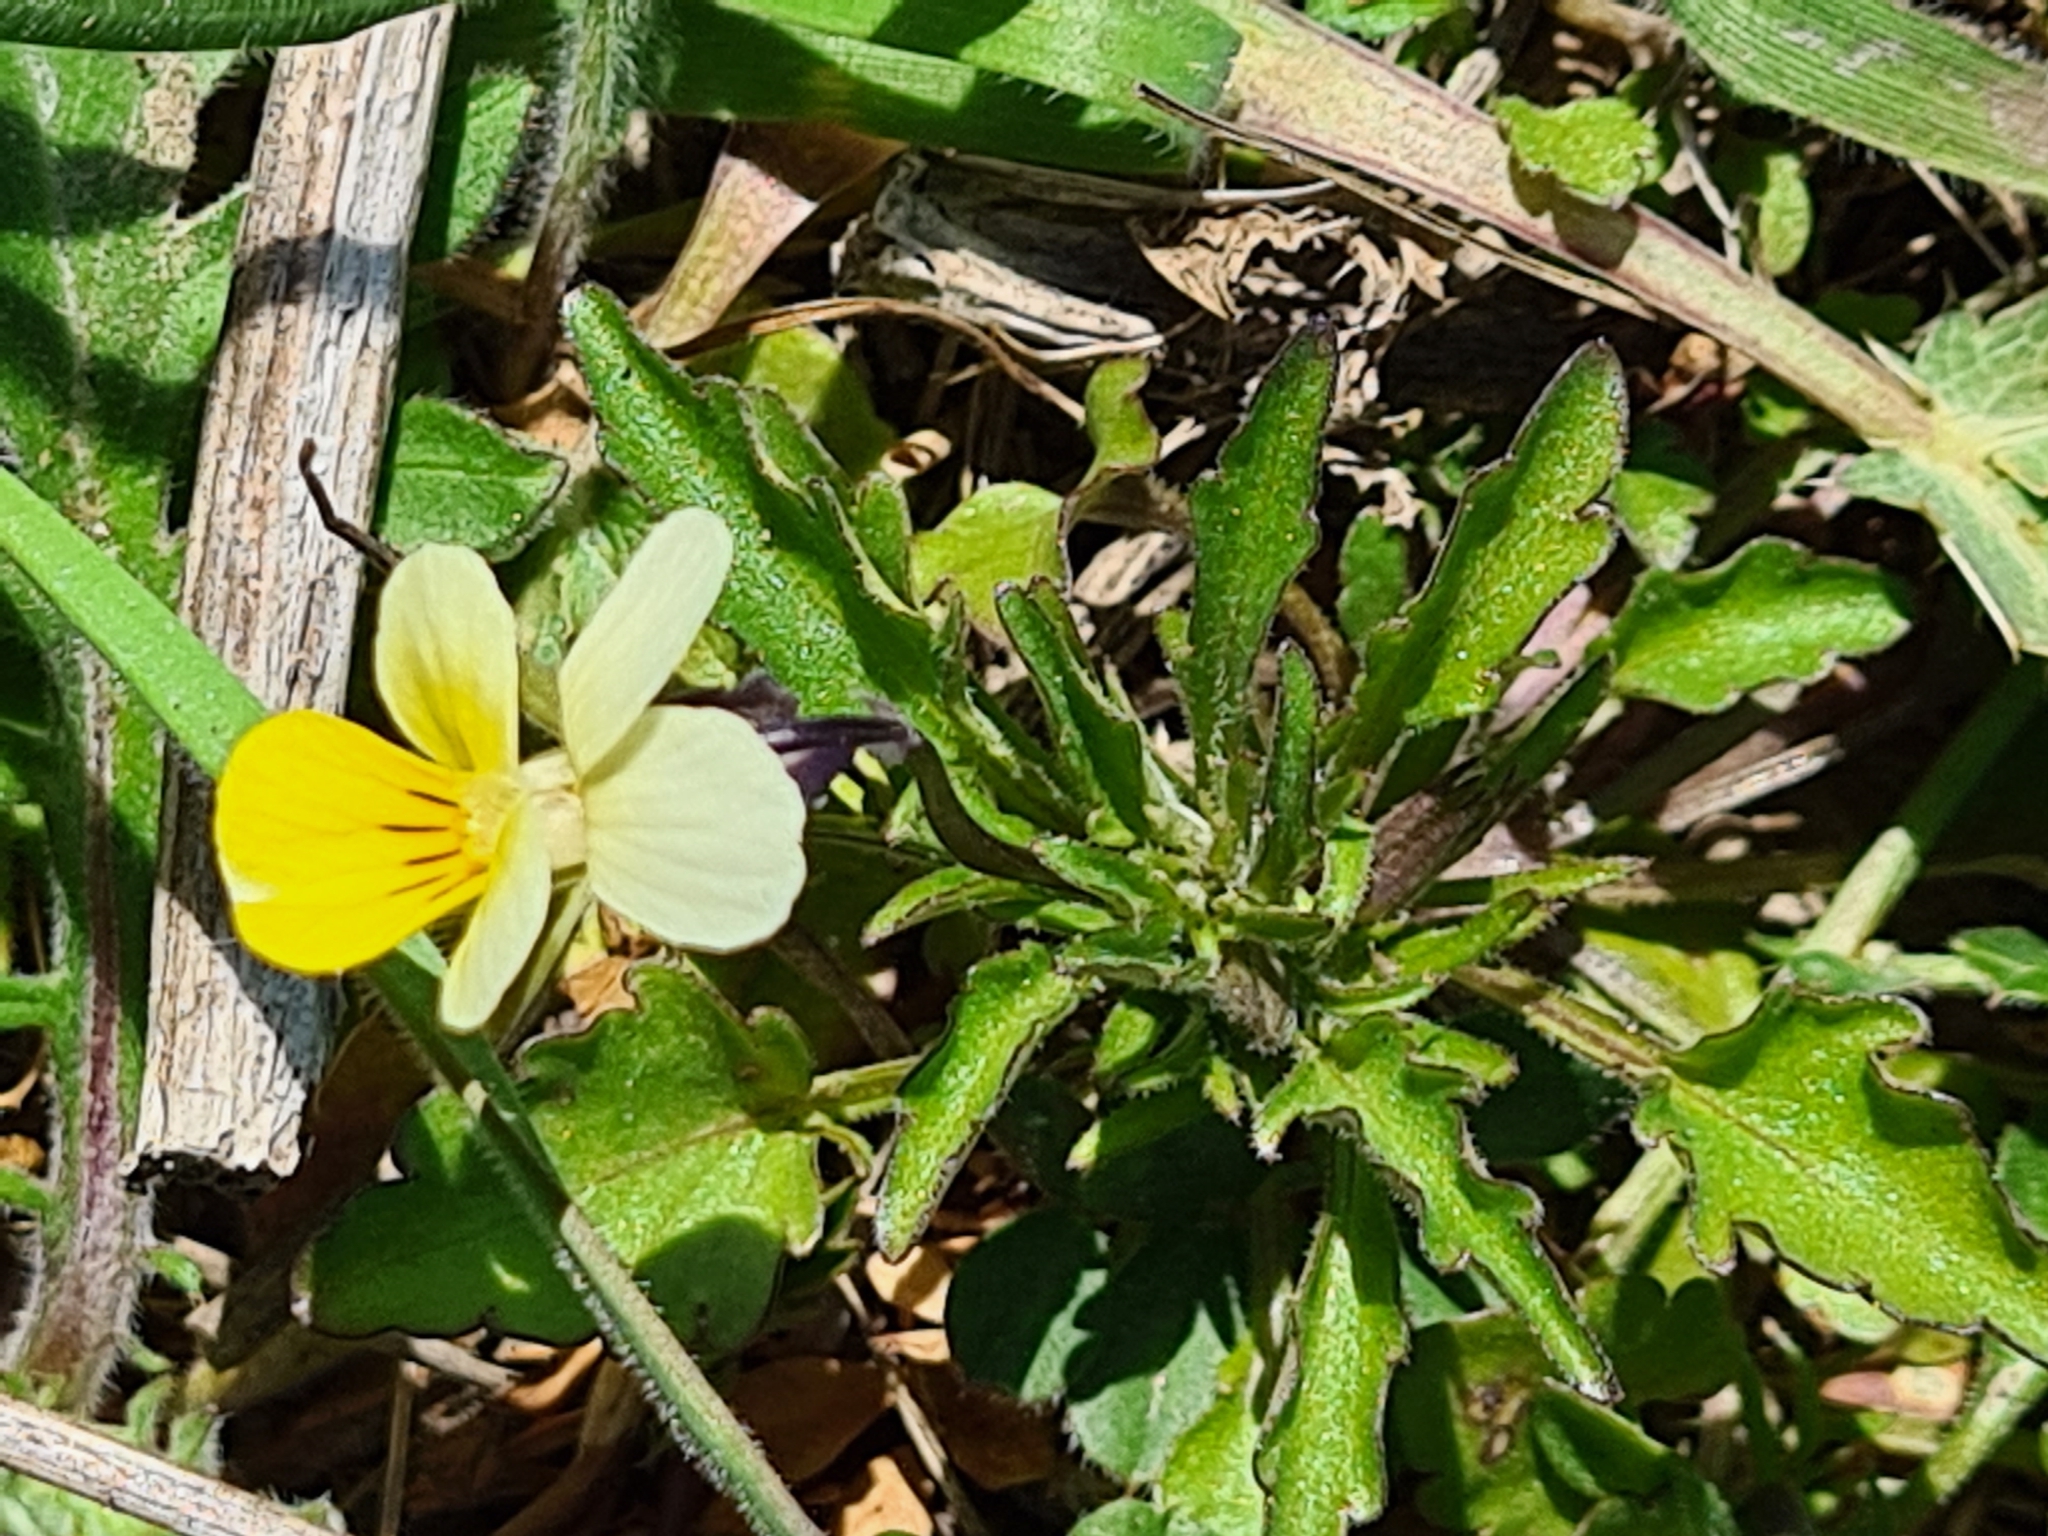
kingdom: Plantae
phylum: Tracheophyta
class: Magnoliopsida
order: Malpighiales
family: Violaceae
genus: Viola
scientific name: Viola arvensis
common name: Field pansy
